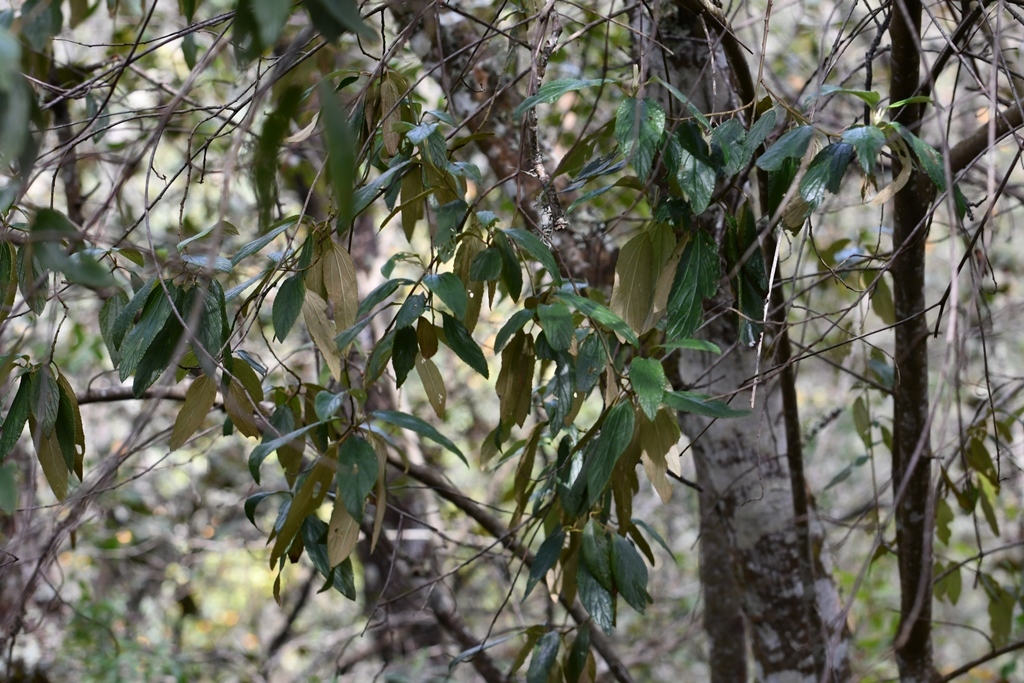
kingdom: Plantae
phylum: Tracheophyta
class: Magnoliopsida
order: Rosales
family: Rhamnaceae
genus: Ceanothus
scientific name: Ceanothus caeruleus
